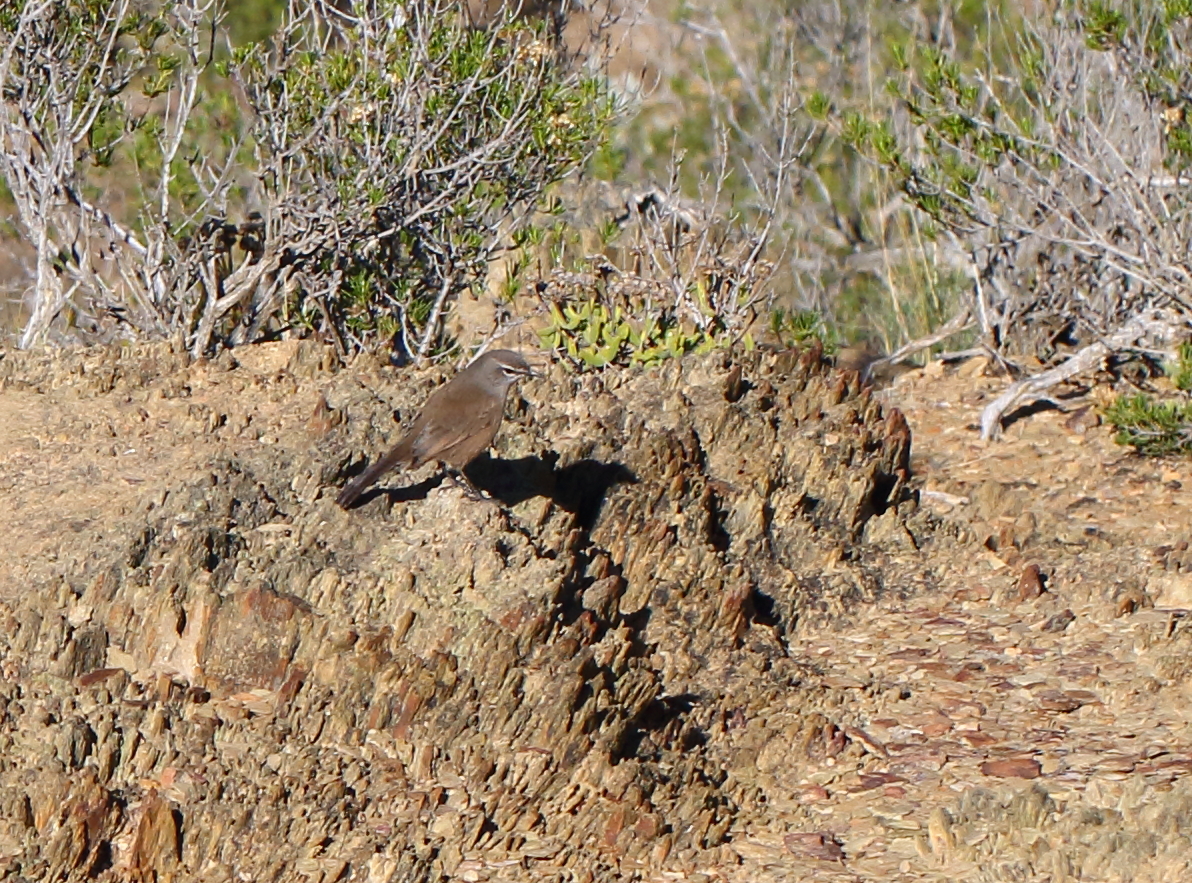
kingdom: Animalia
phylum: Chordata
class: Aves
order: Passeriformes
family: Muscicapidae
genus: Erythropygia
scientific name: Erythropygia coryphoeus
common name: Karoo scrub robin
